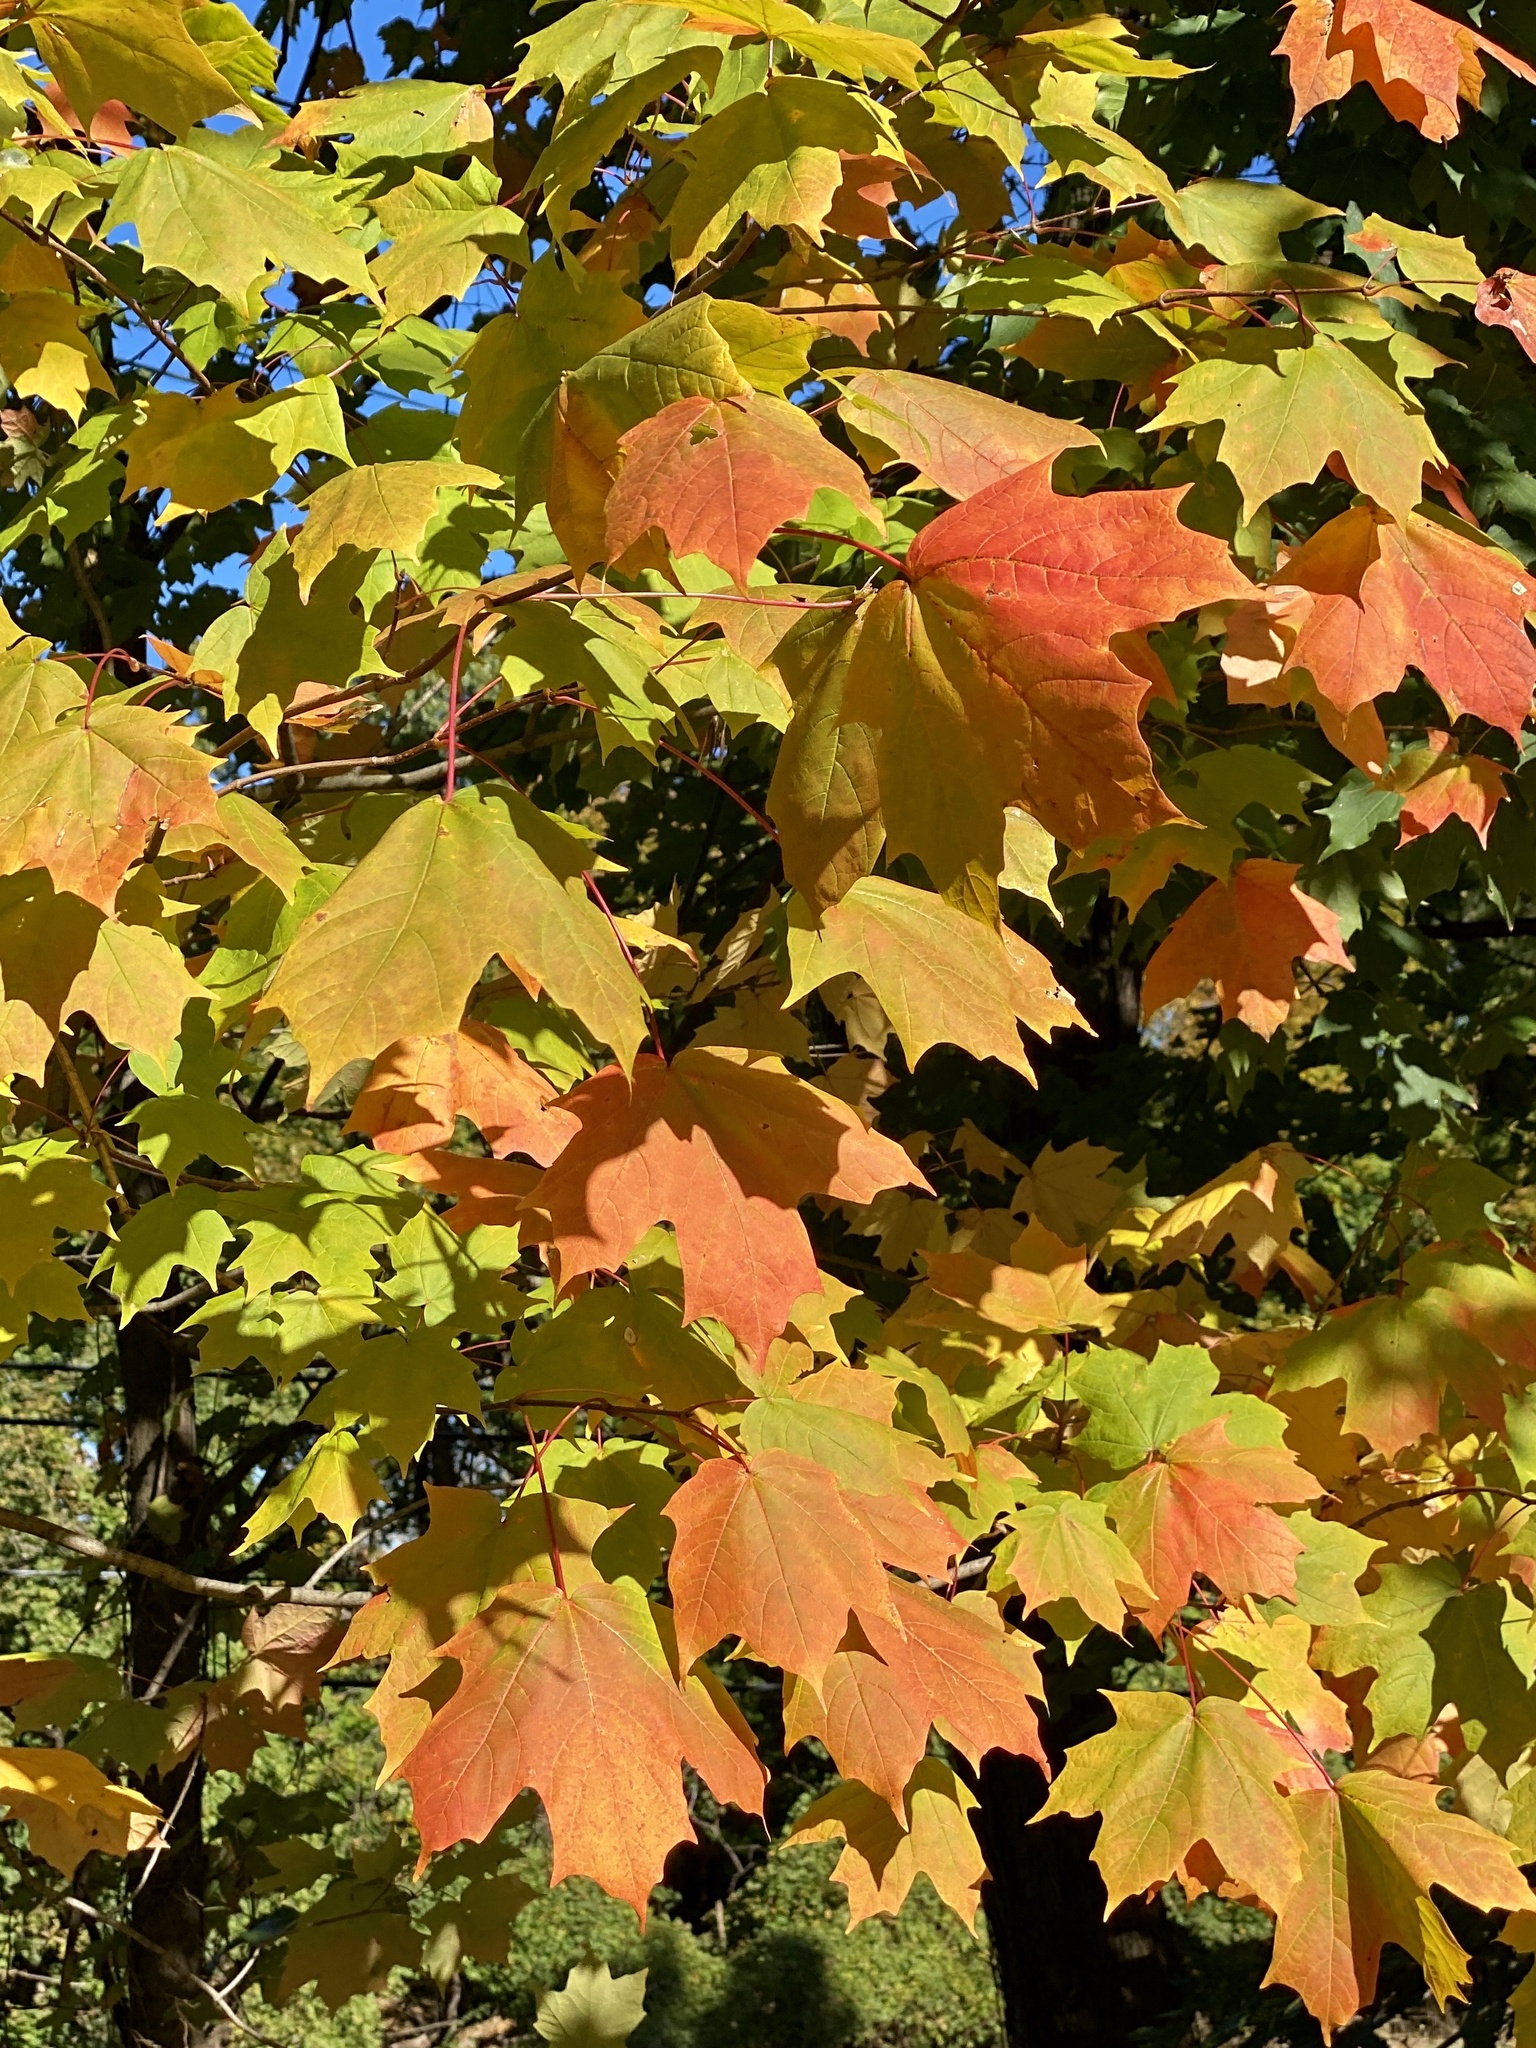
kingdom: Plantae
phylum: Tracheophyta
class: Magnoliopsida
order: Sapindales
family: Sapindaceae
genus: Acer
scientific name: Acer saccharum
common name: Sugar maple
